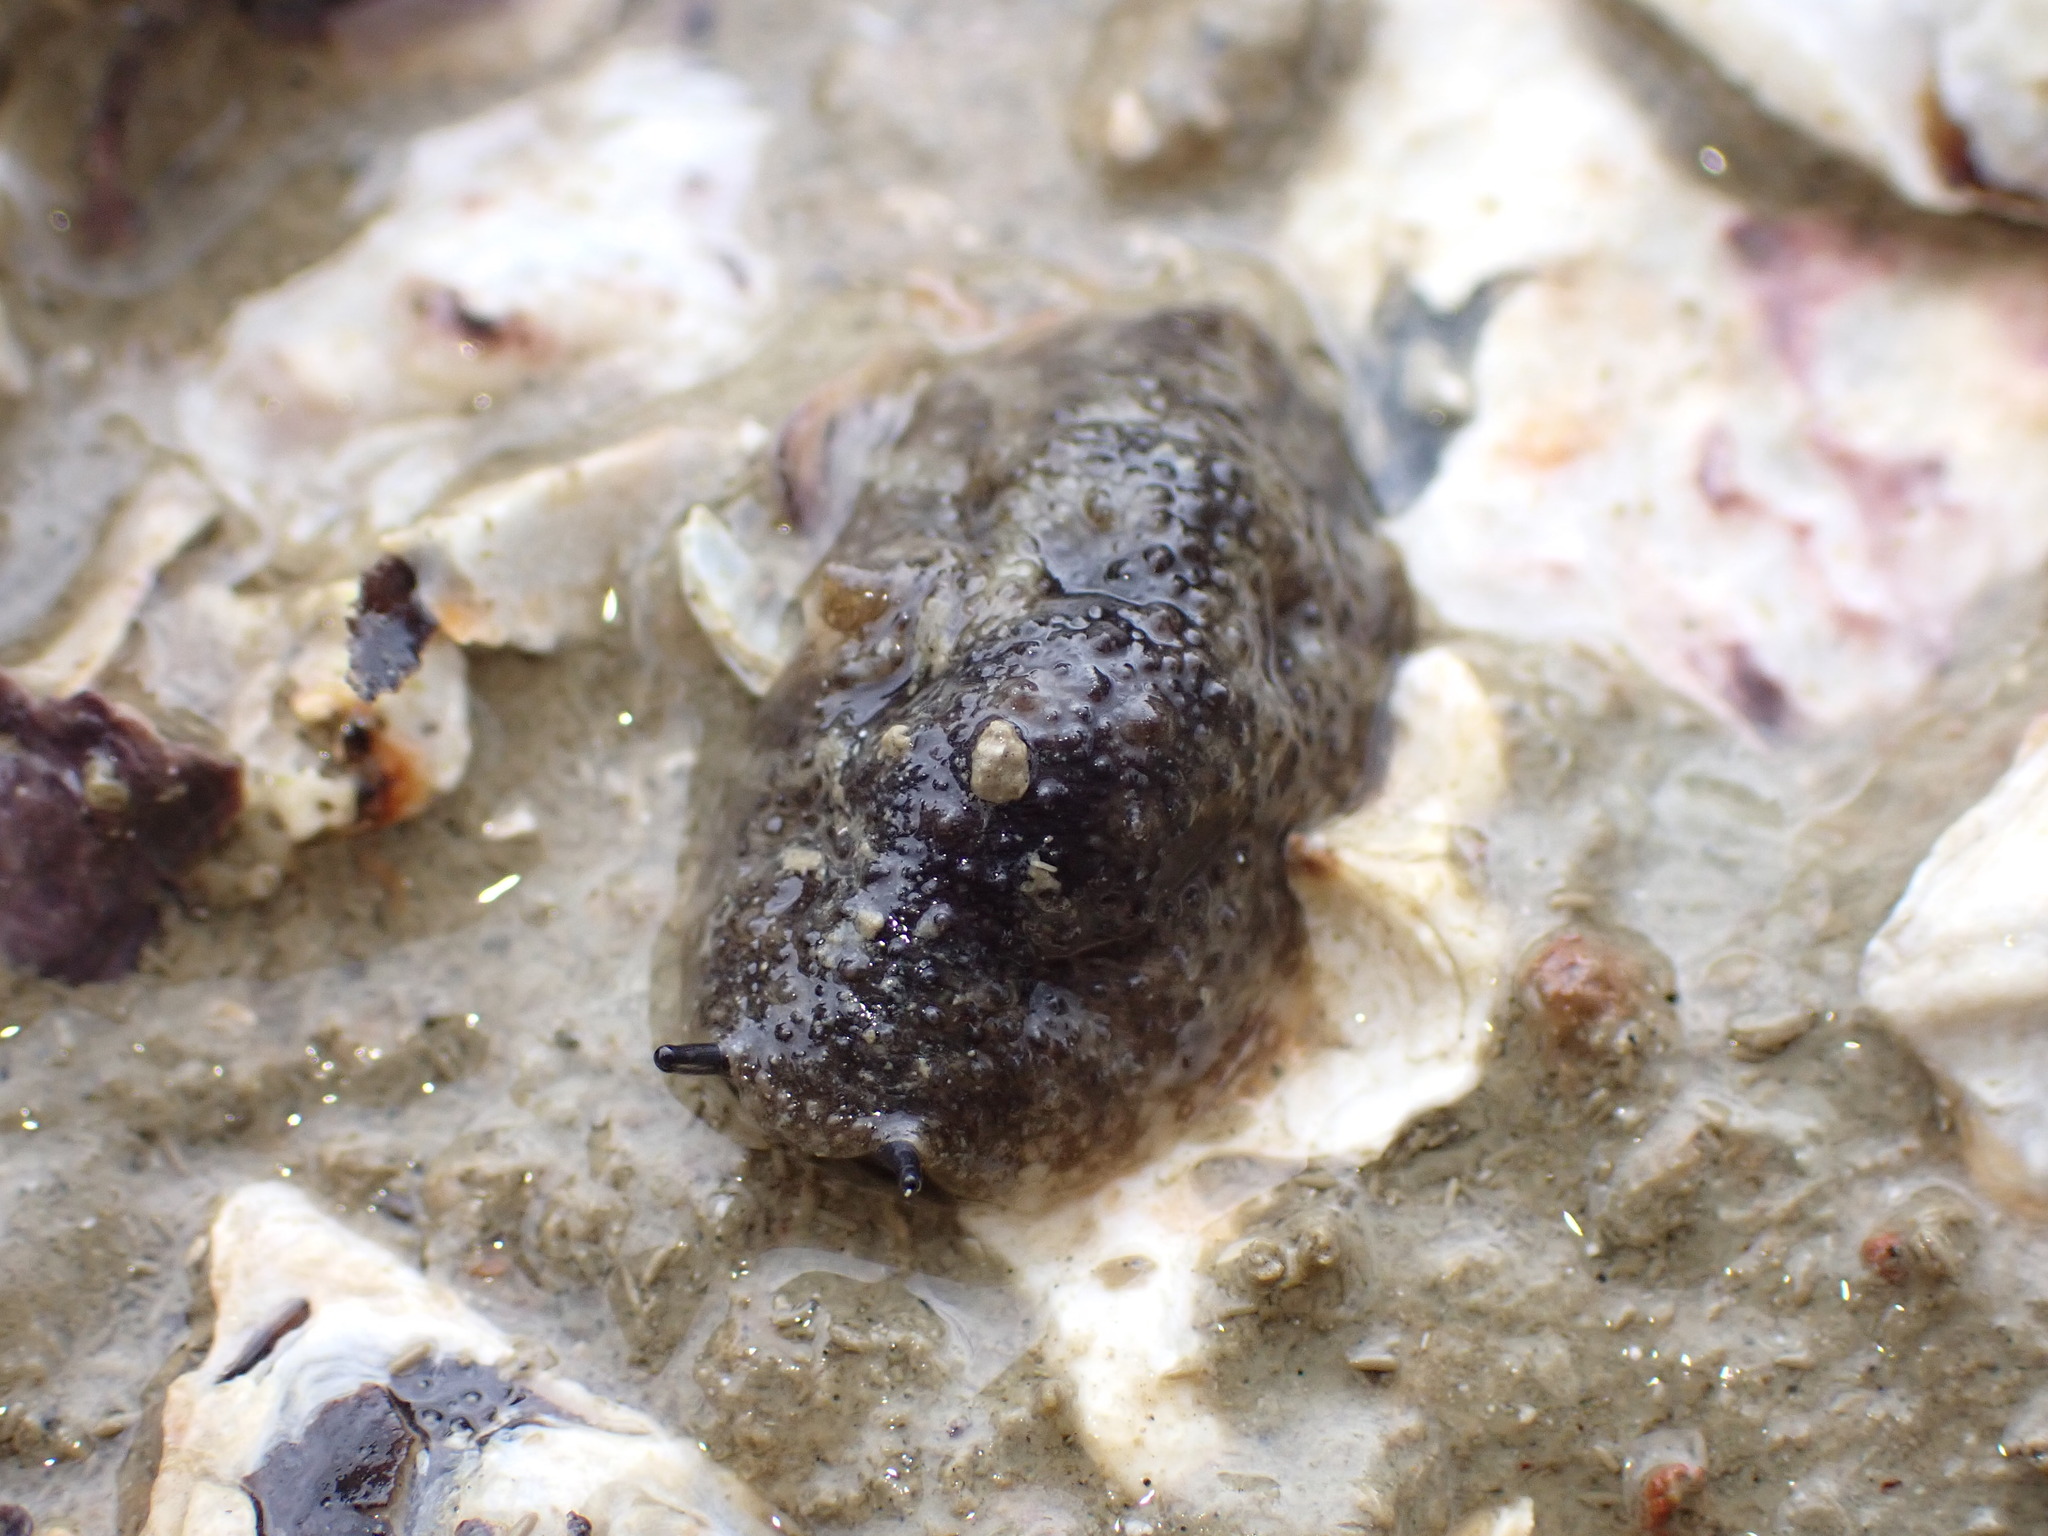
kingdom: Animalia
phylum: Mollusca
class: Gastropoda
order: Systellommatophora
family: Onchidiidae
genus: Onchidella
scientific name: Onchidella nigricans
